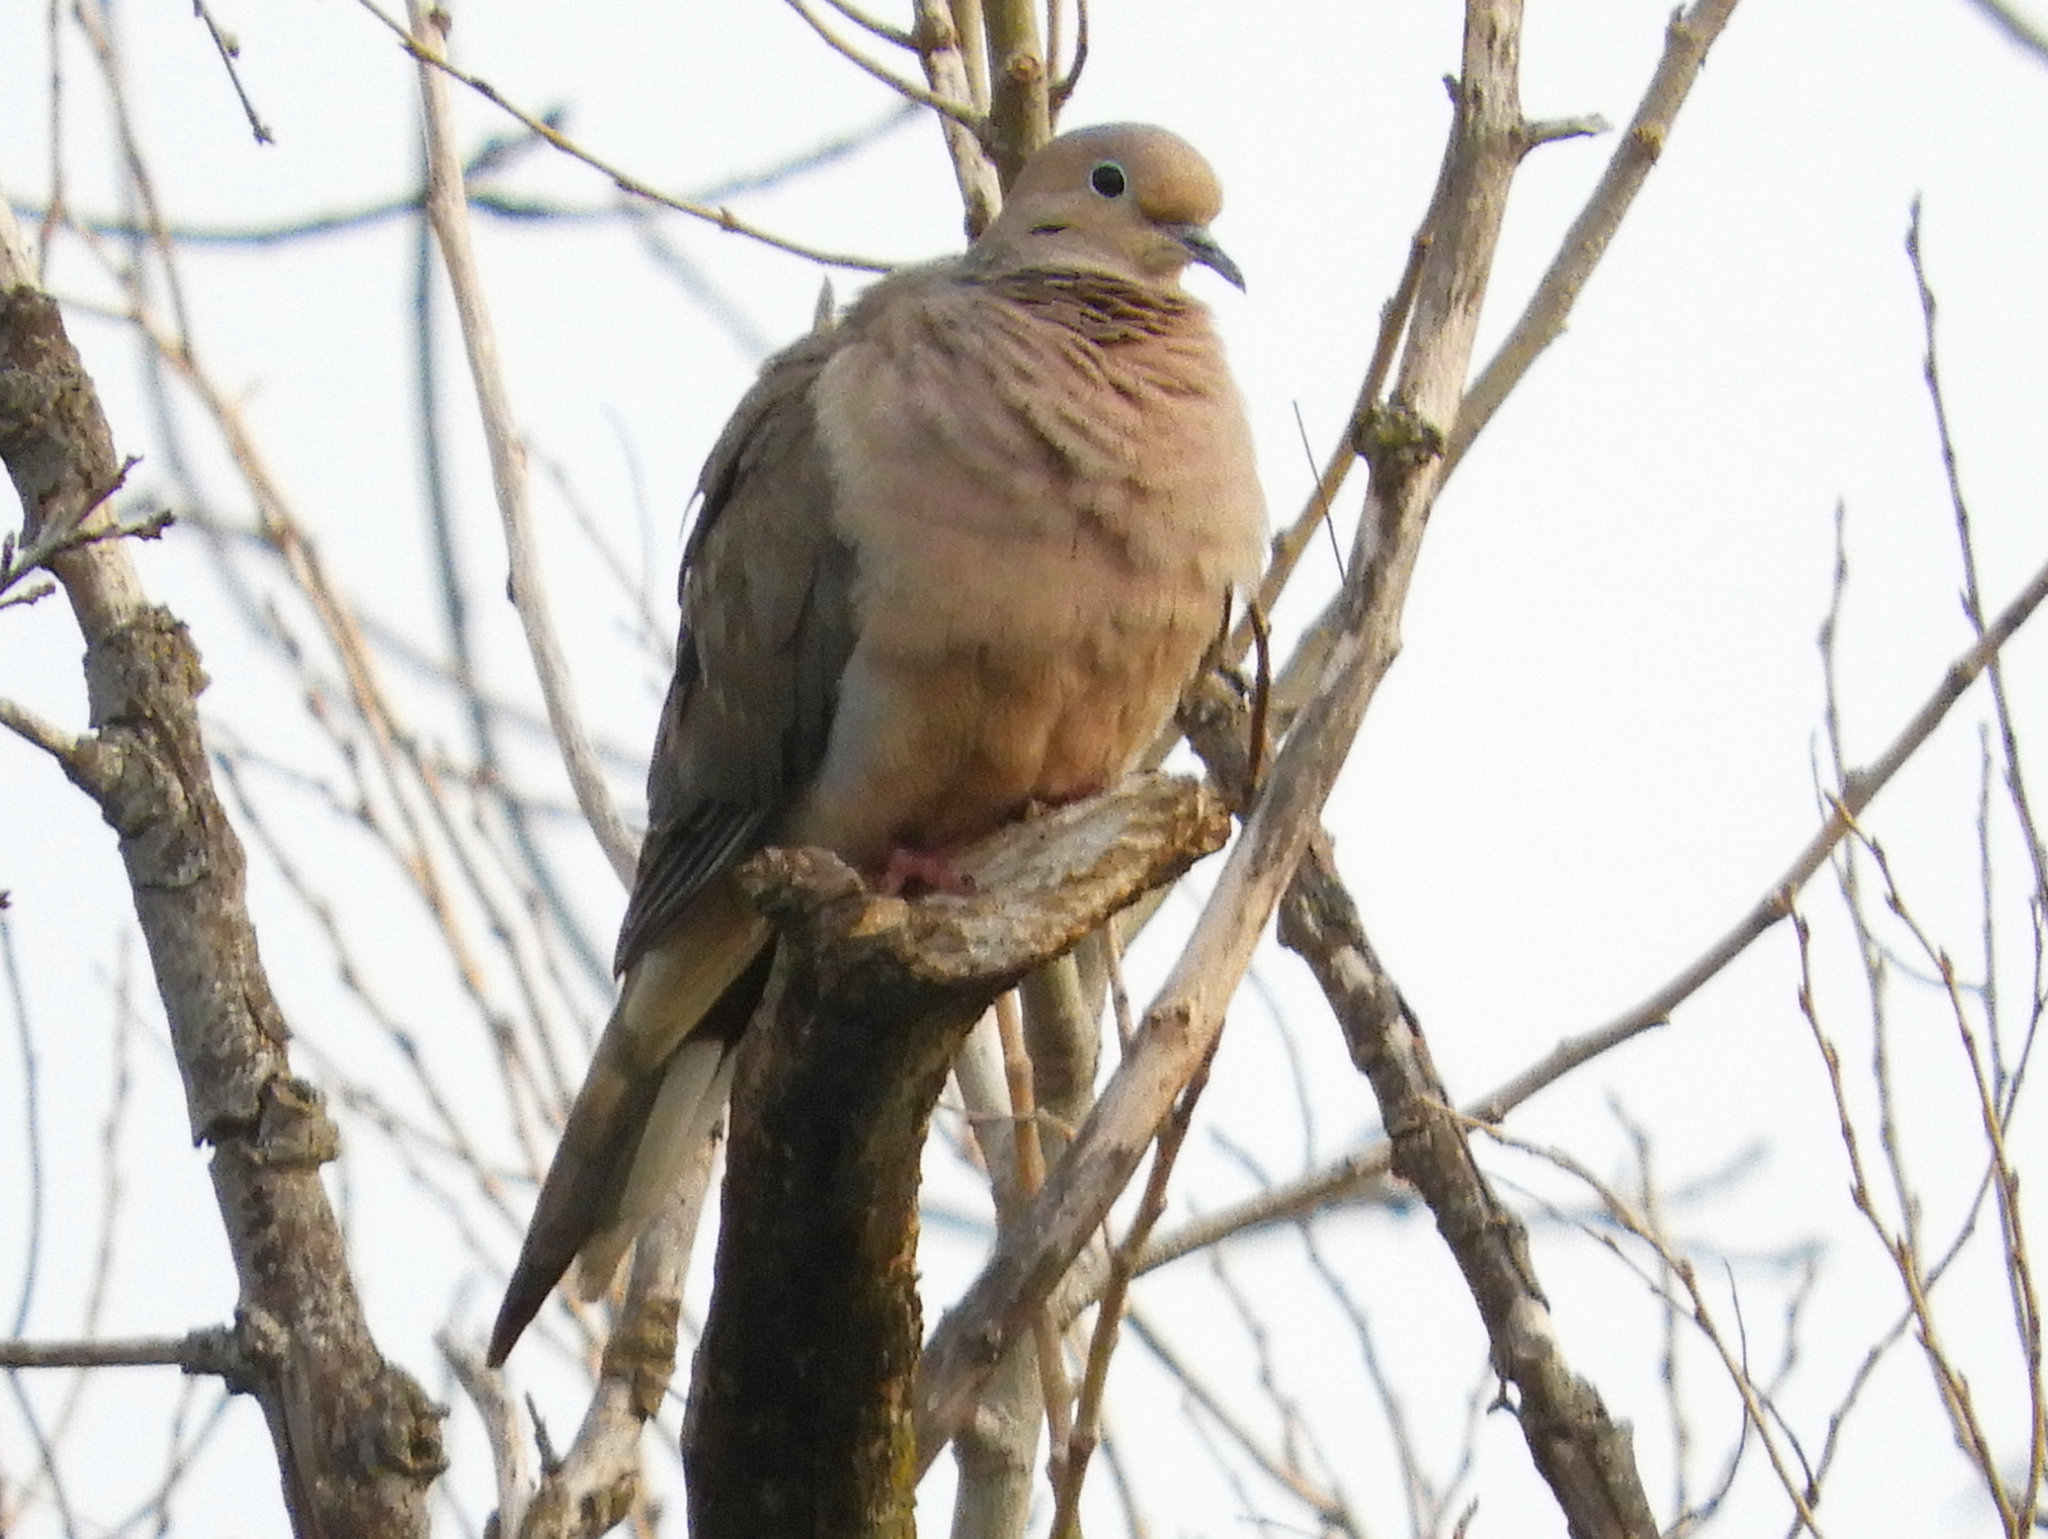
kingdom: Animalia
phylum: Chordata
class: Aves
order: Columbiformes
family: Columbidae
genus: Zenaida
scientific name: Zenaida macroura
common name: Mourning dove
